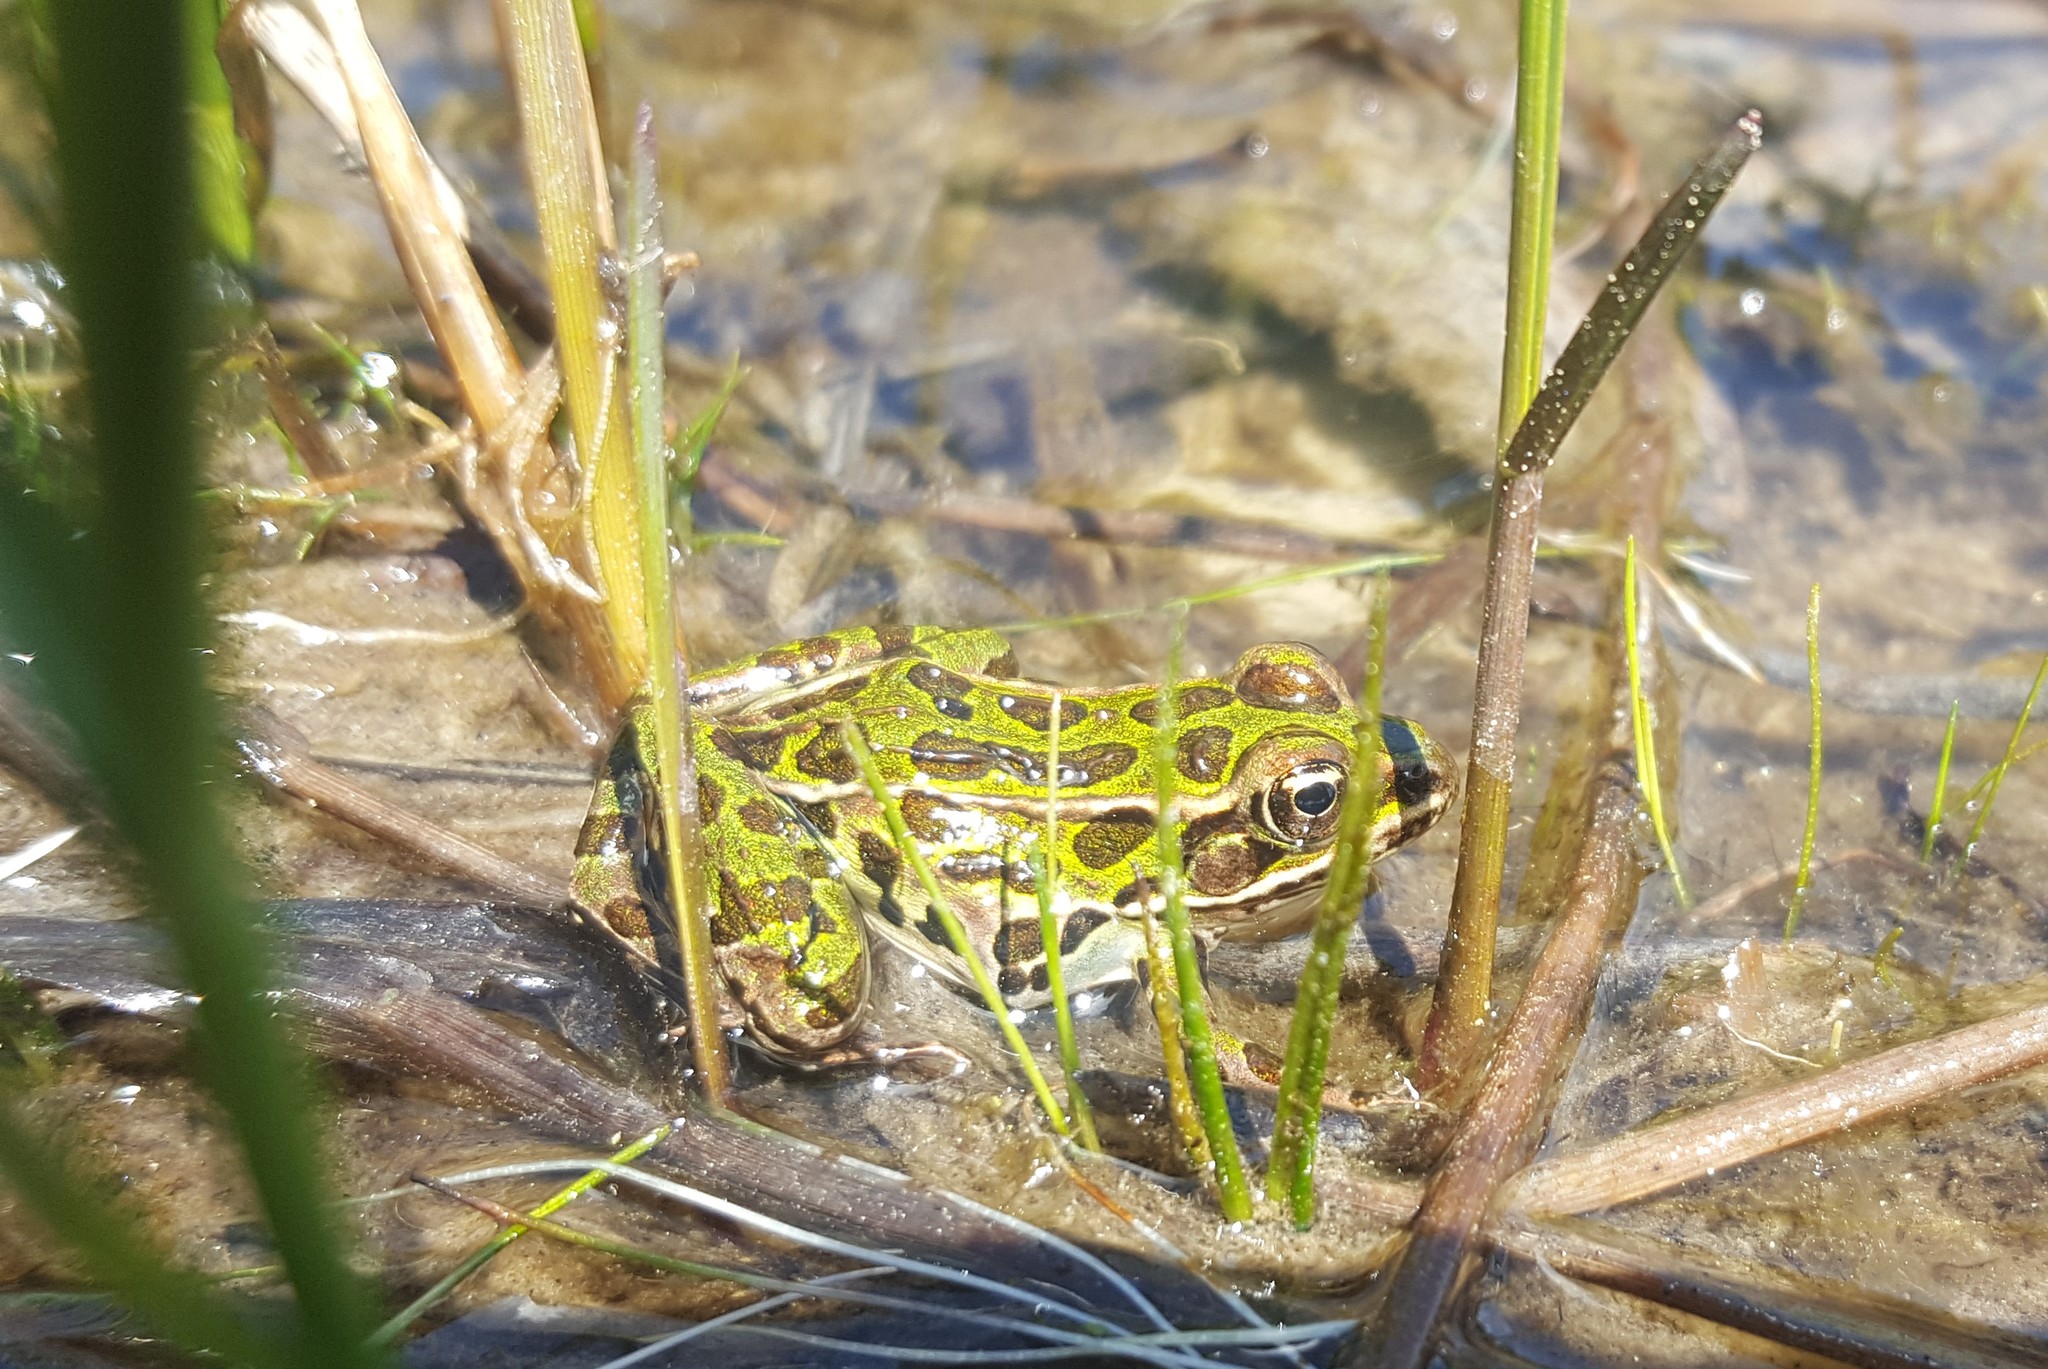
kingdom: Animalia
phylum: Chordata
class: Amphibia
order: Anura
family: Ranidae
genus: Lithobates
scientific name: Lithobates pipiens
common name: Northern leopard frog
